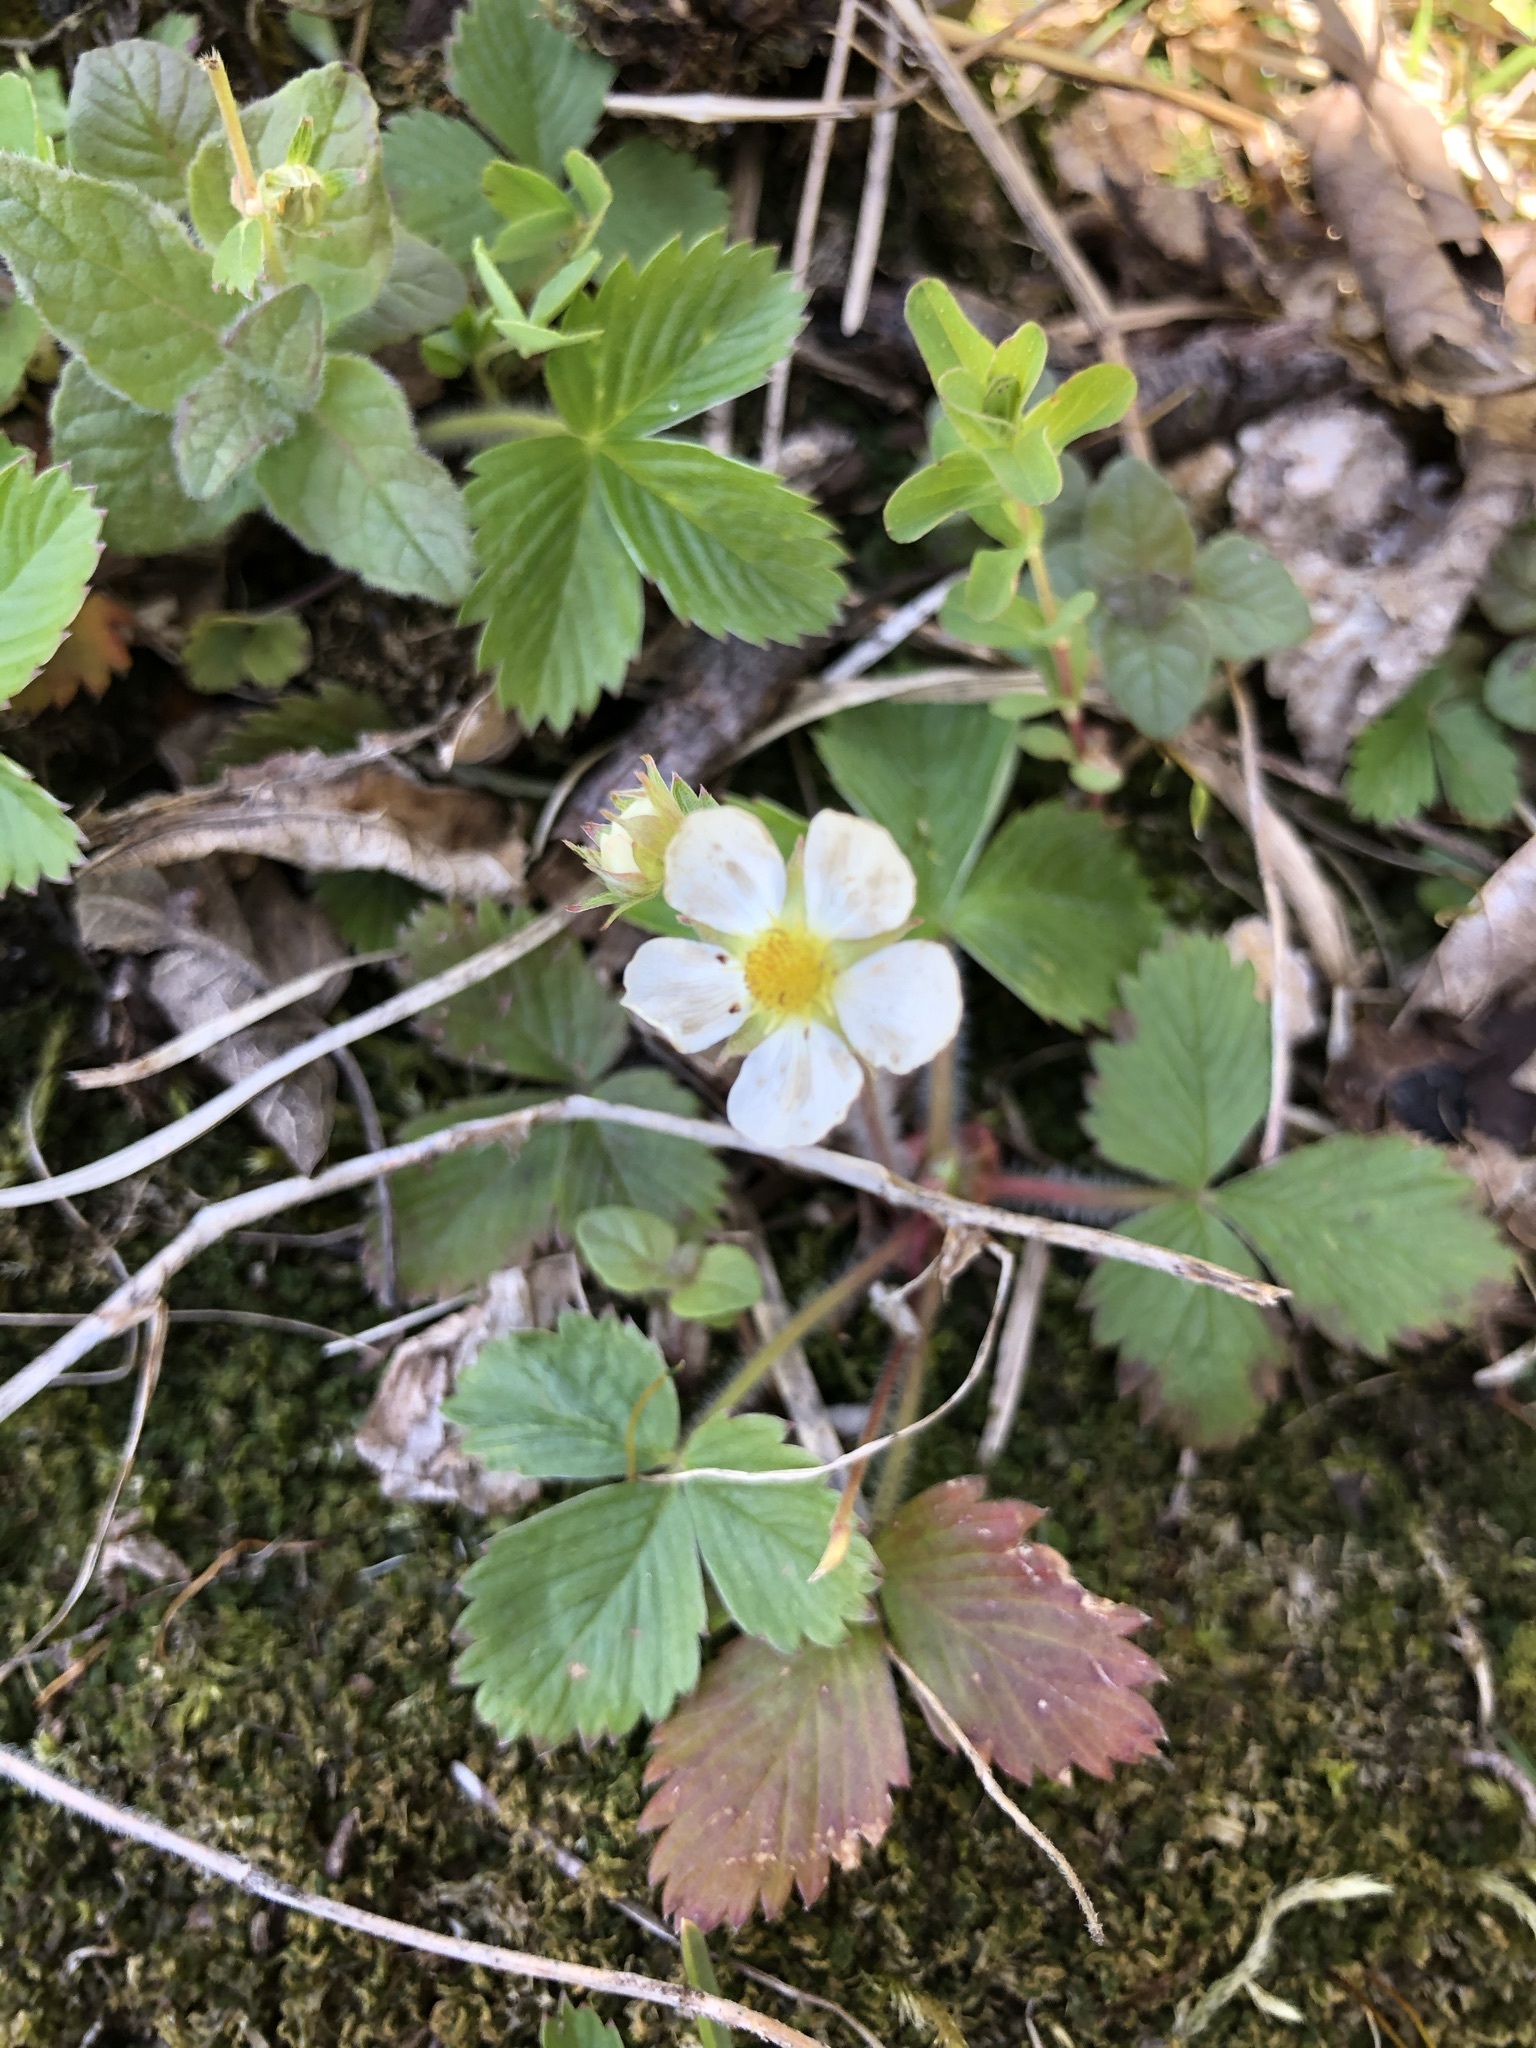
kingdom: Plantae
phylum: Tracheophyta
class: Magnoliopsida
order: Rosales
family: Rosaceae
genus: Fragaria
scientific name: Fragaria vesca
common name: Wild strawberry
